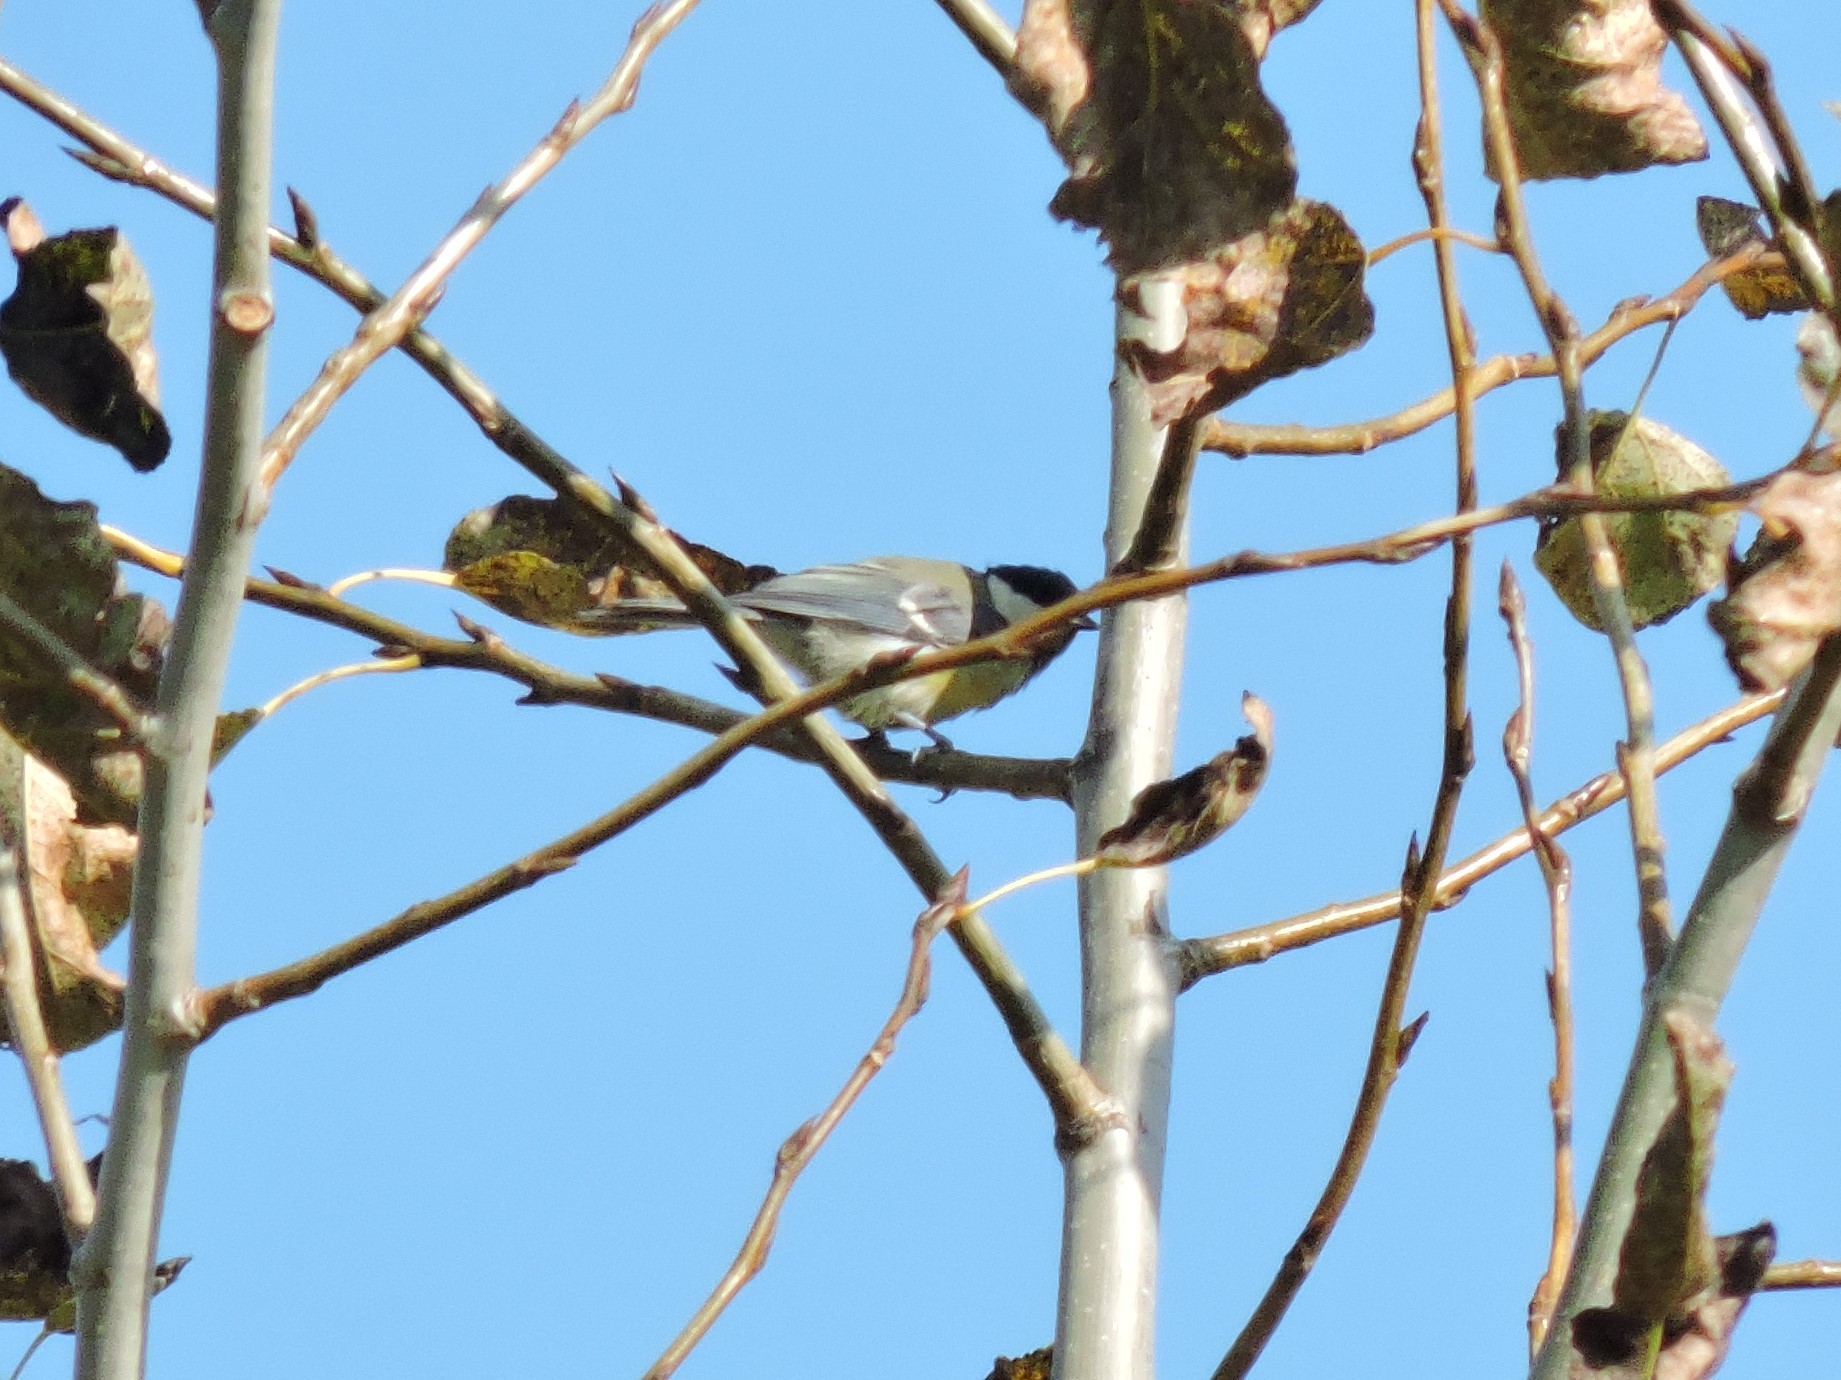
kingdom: Animalia
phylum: Chordata
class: Aves
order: Passeriformes
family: Paridae
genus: Parus
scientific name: Parus major
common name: Great tit
